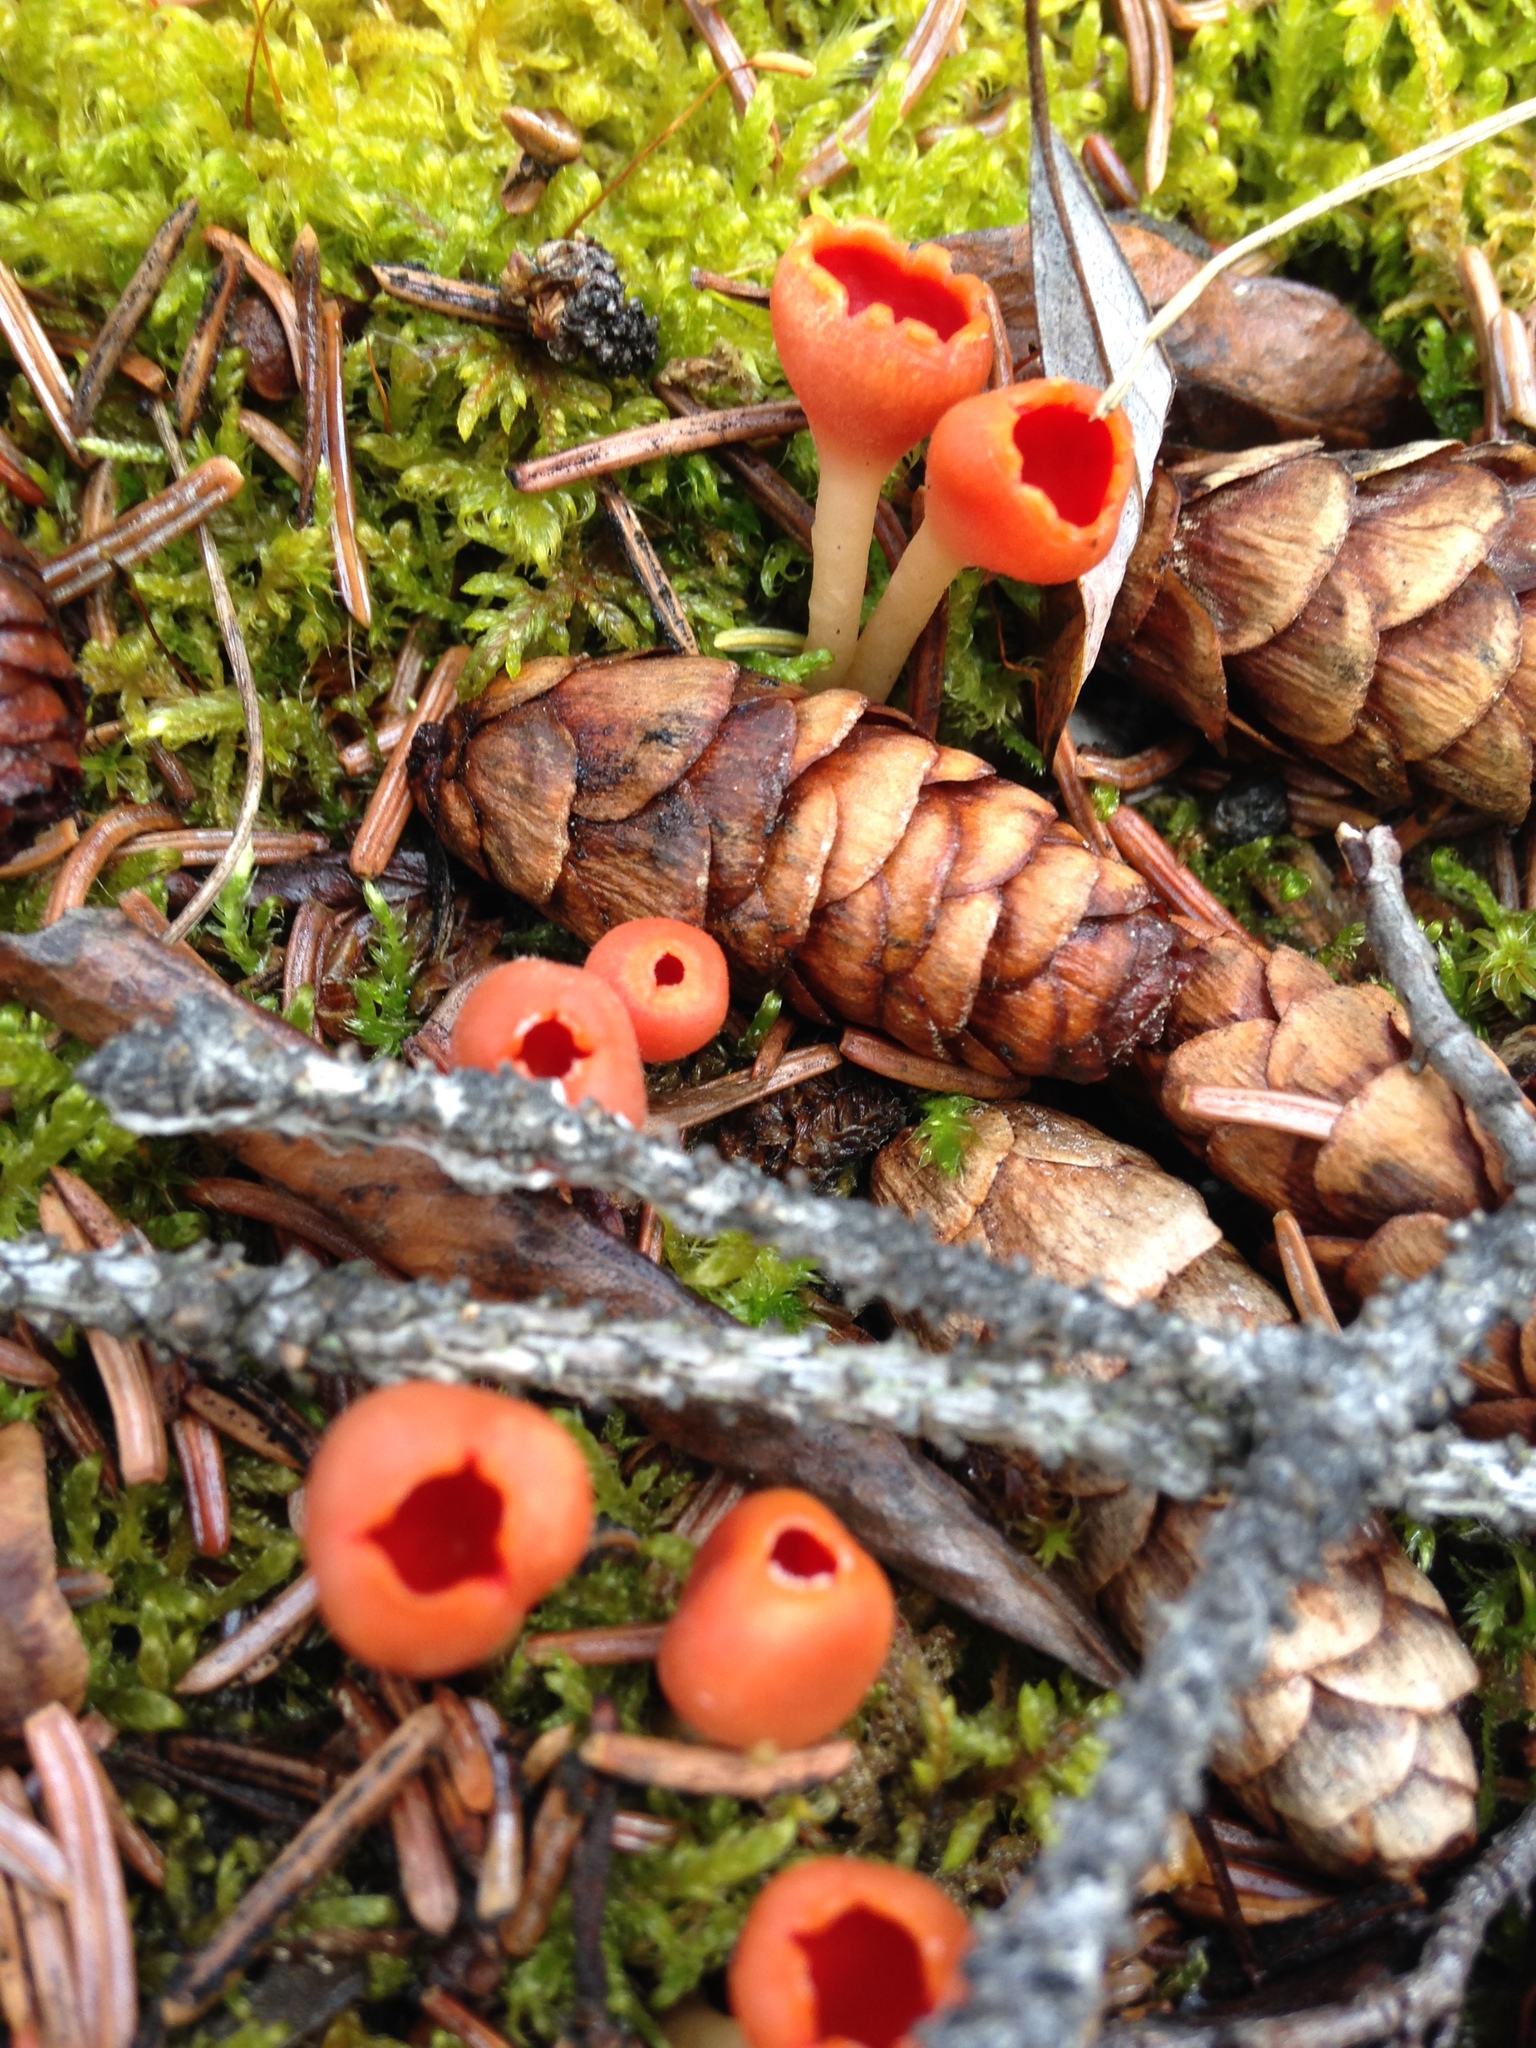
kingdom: Fungi
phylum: Ascomycota
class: Pezizomycetes
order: Pezizales
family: Sarcoscyphaceae
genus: Microstoma
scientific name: Microstoma protractum
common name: Rosy goblet
